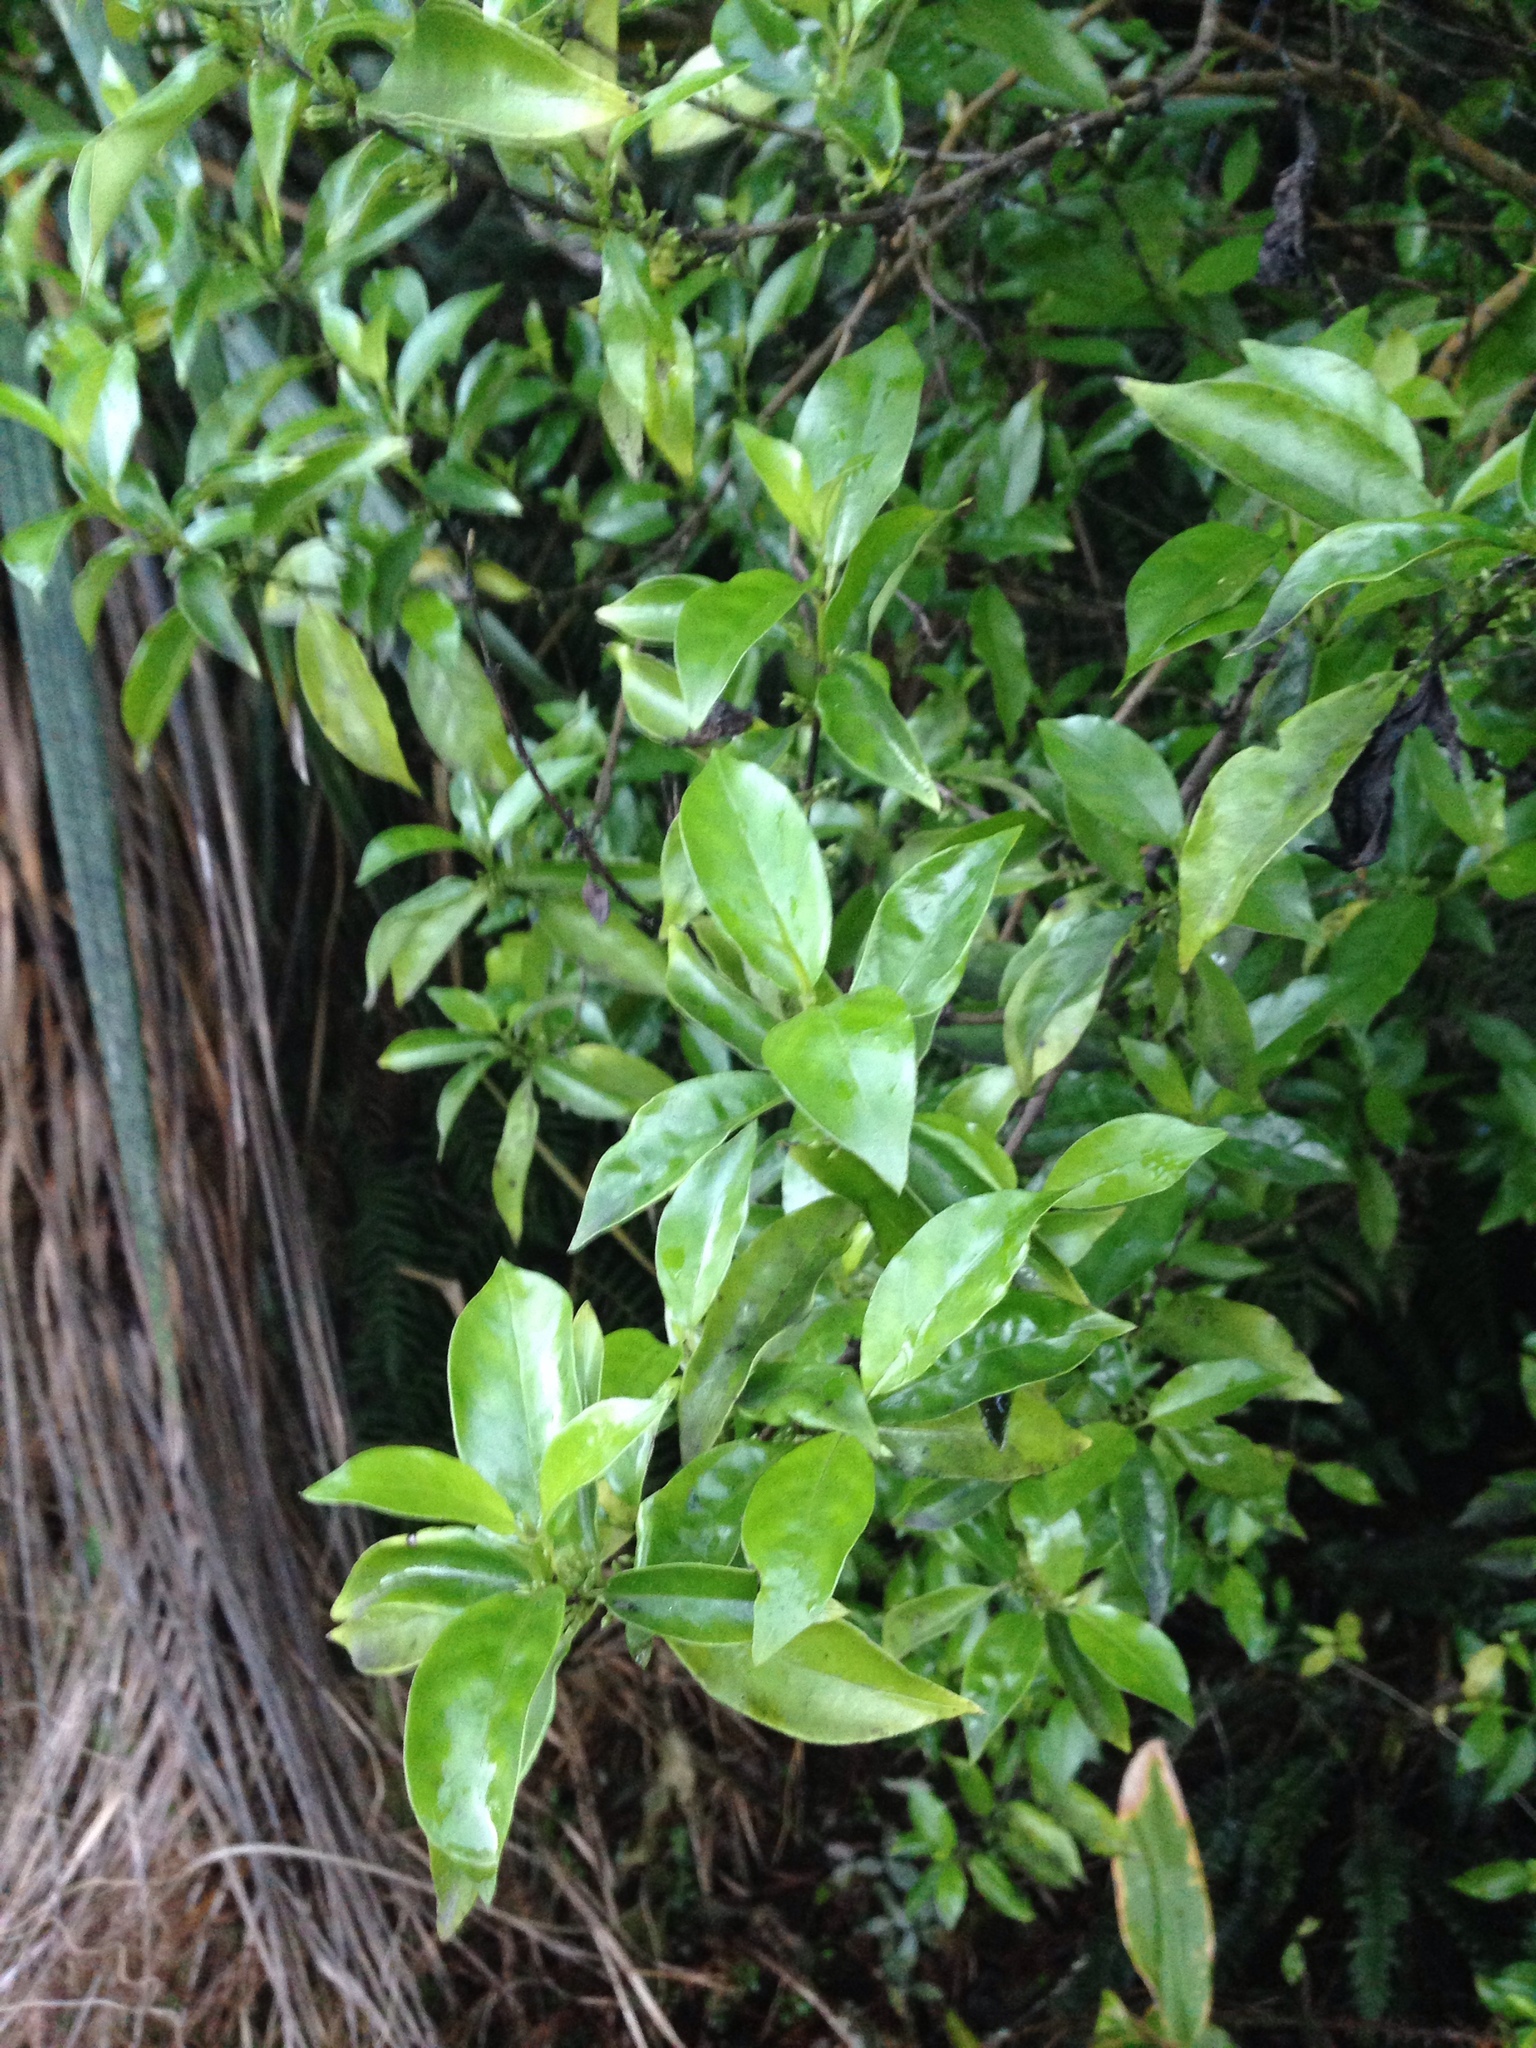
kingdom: Plantae
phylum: Tracheophyta
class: Magnoliopsida
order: Gentianales
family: Loganiaceae
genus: Geniostoma
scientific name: Geniostoma ligustrifolium
